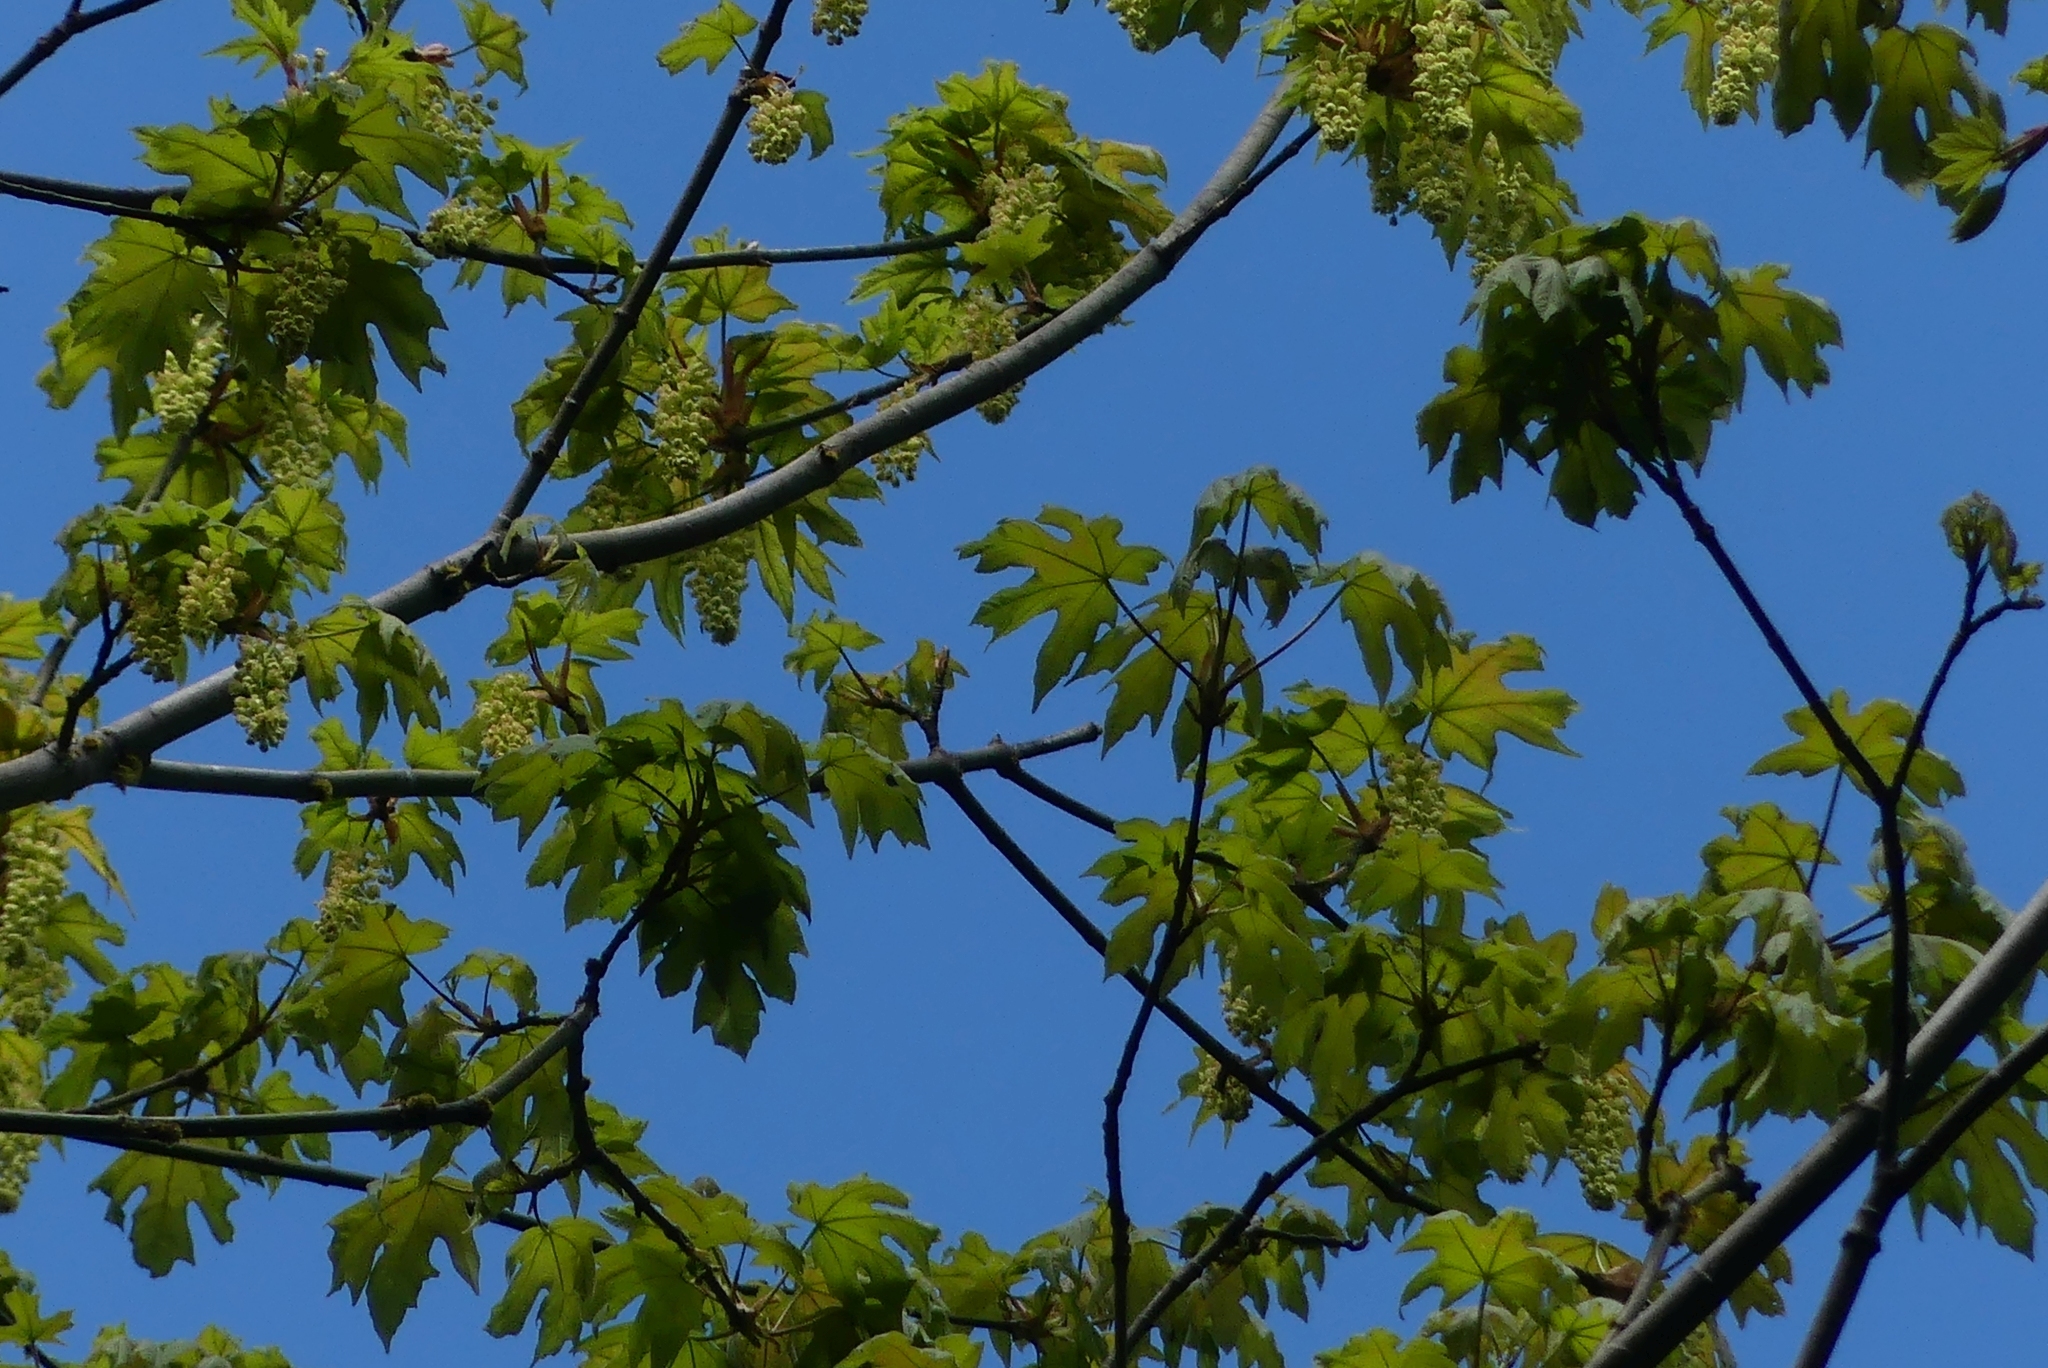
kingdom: Plantae
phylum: Tracheophyta
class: Magnoliopsida
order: Sapindales
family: Sapindaceae
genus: Acer
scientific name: Acer macrophyllum
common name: Oregon maple
